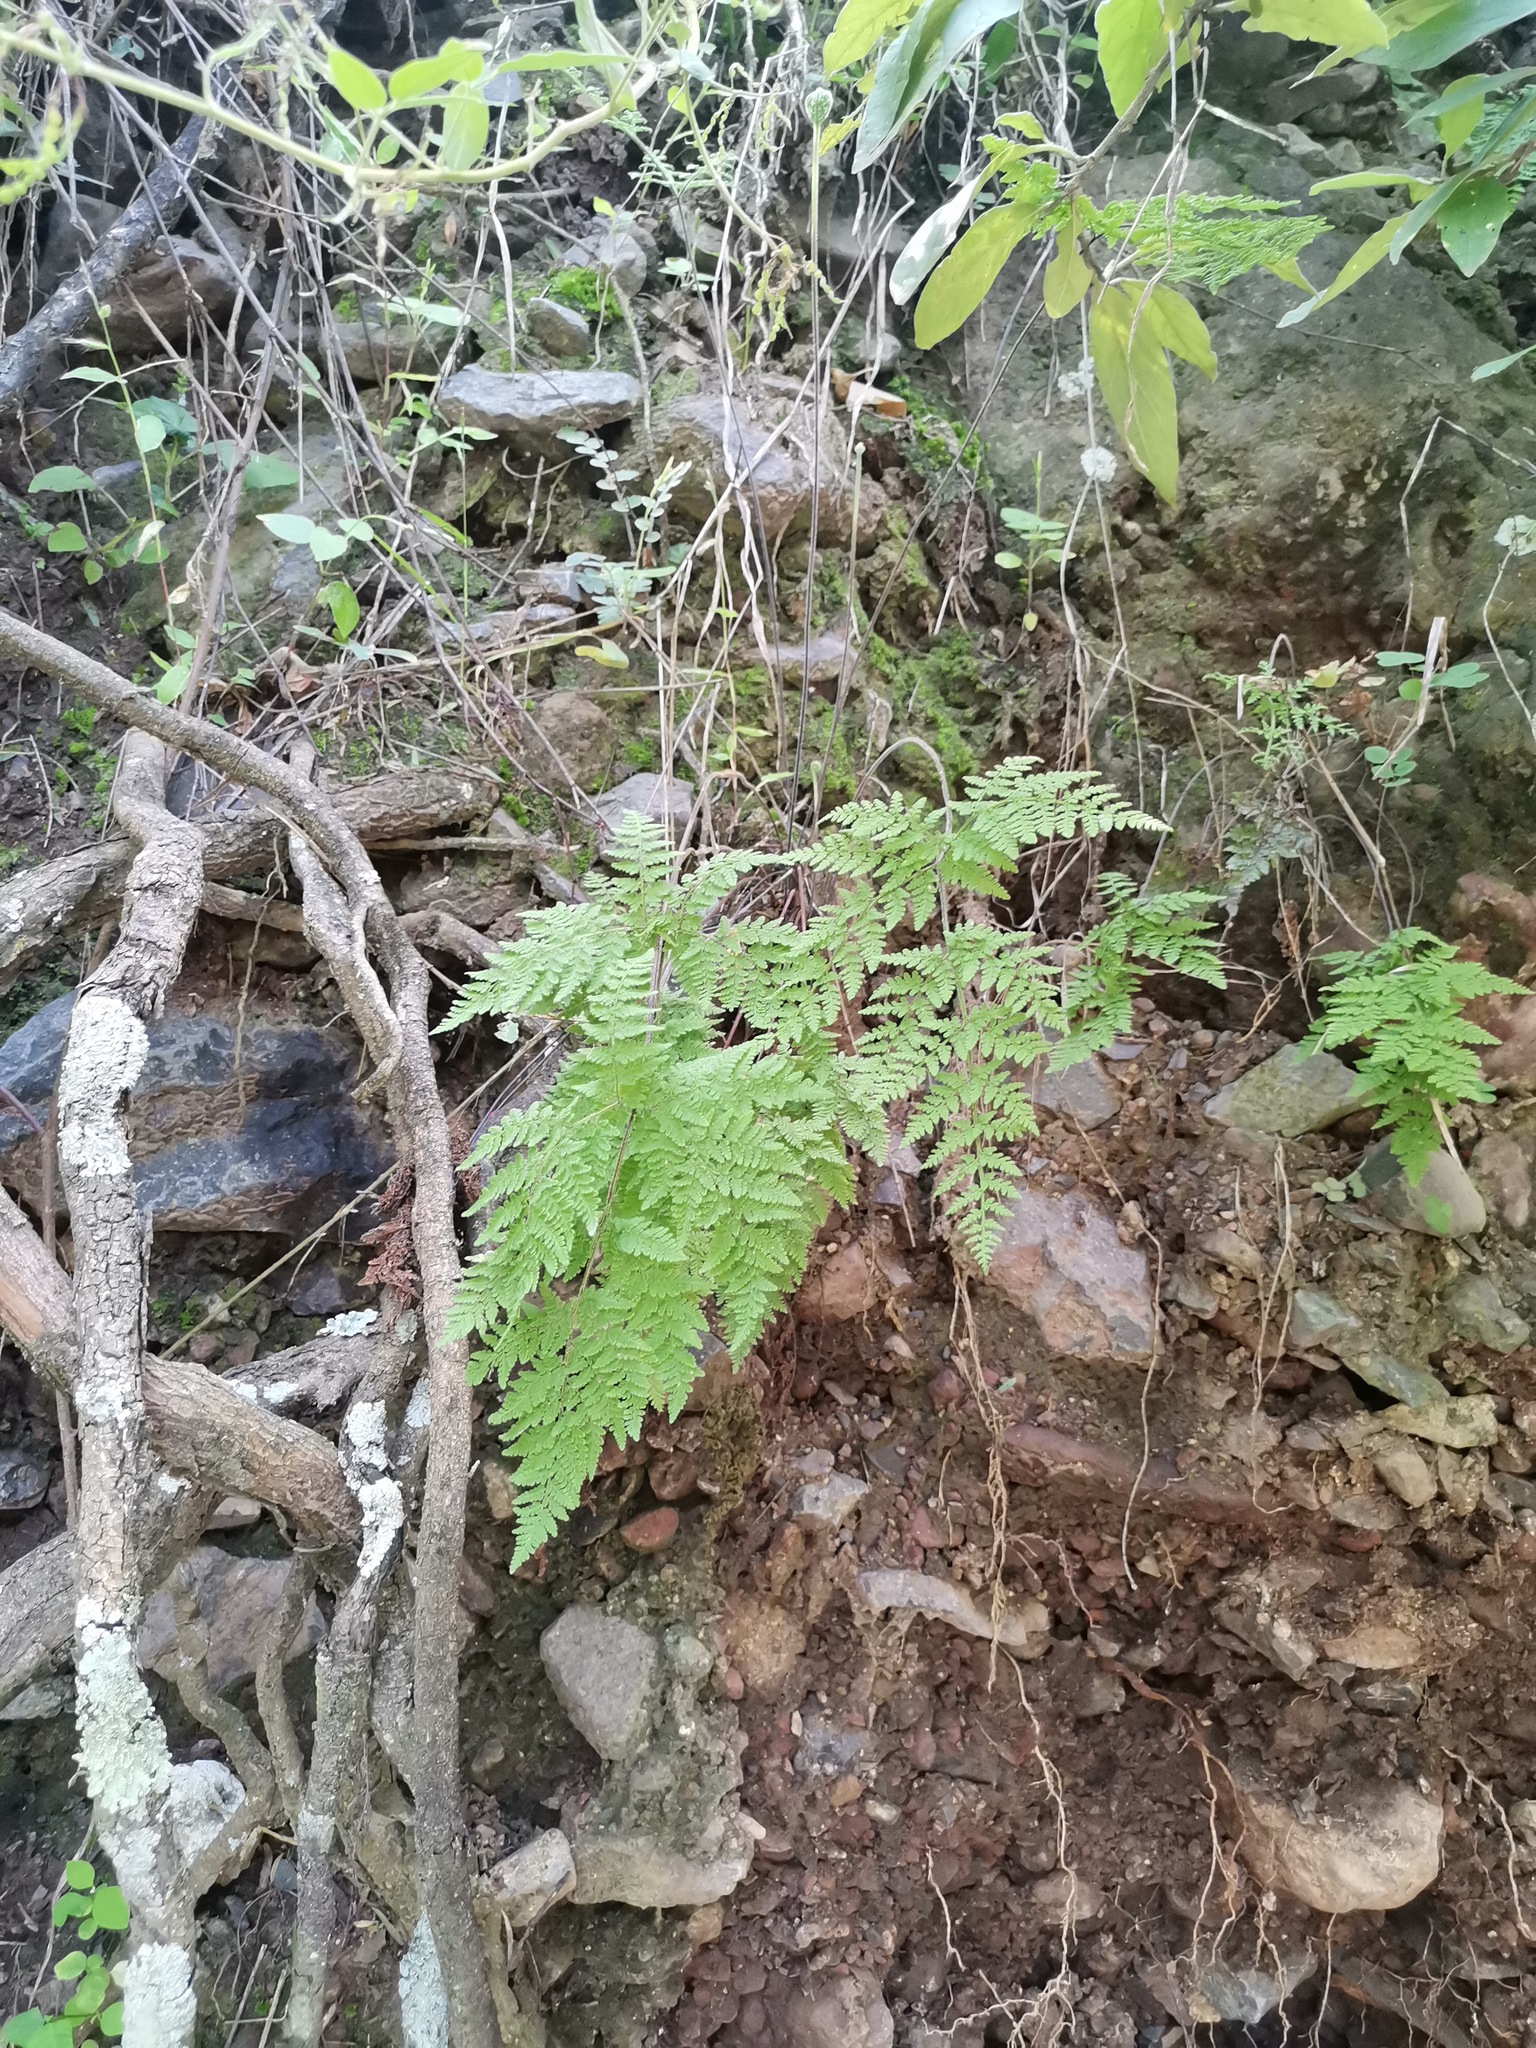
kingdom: Plantae
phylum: Tracheophyta
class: Polypodiopsida
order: Polypodiales
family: Pteridaceae
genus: Gaga
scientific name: Gaga kaulfussii
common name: Glandular lip fern
